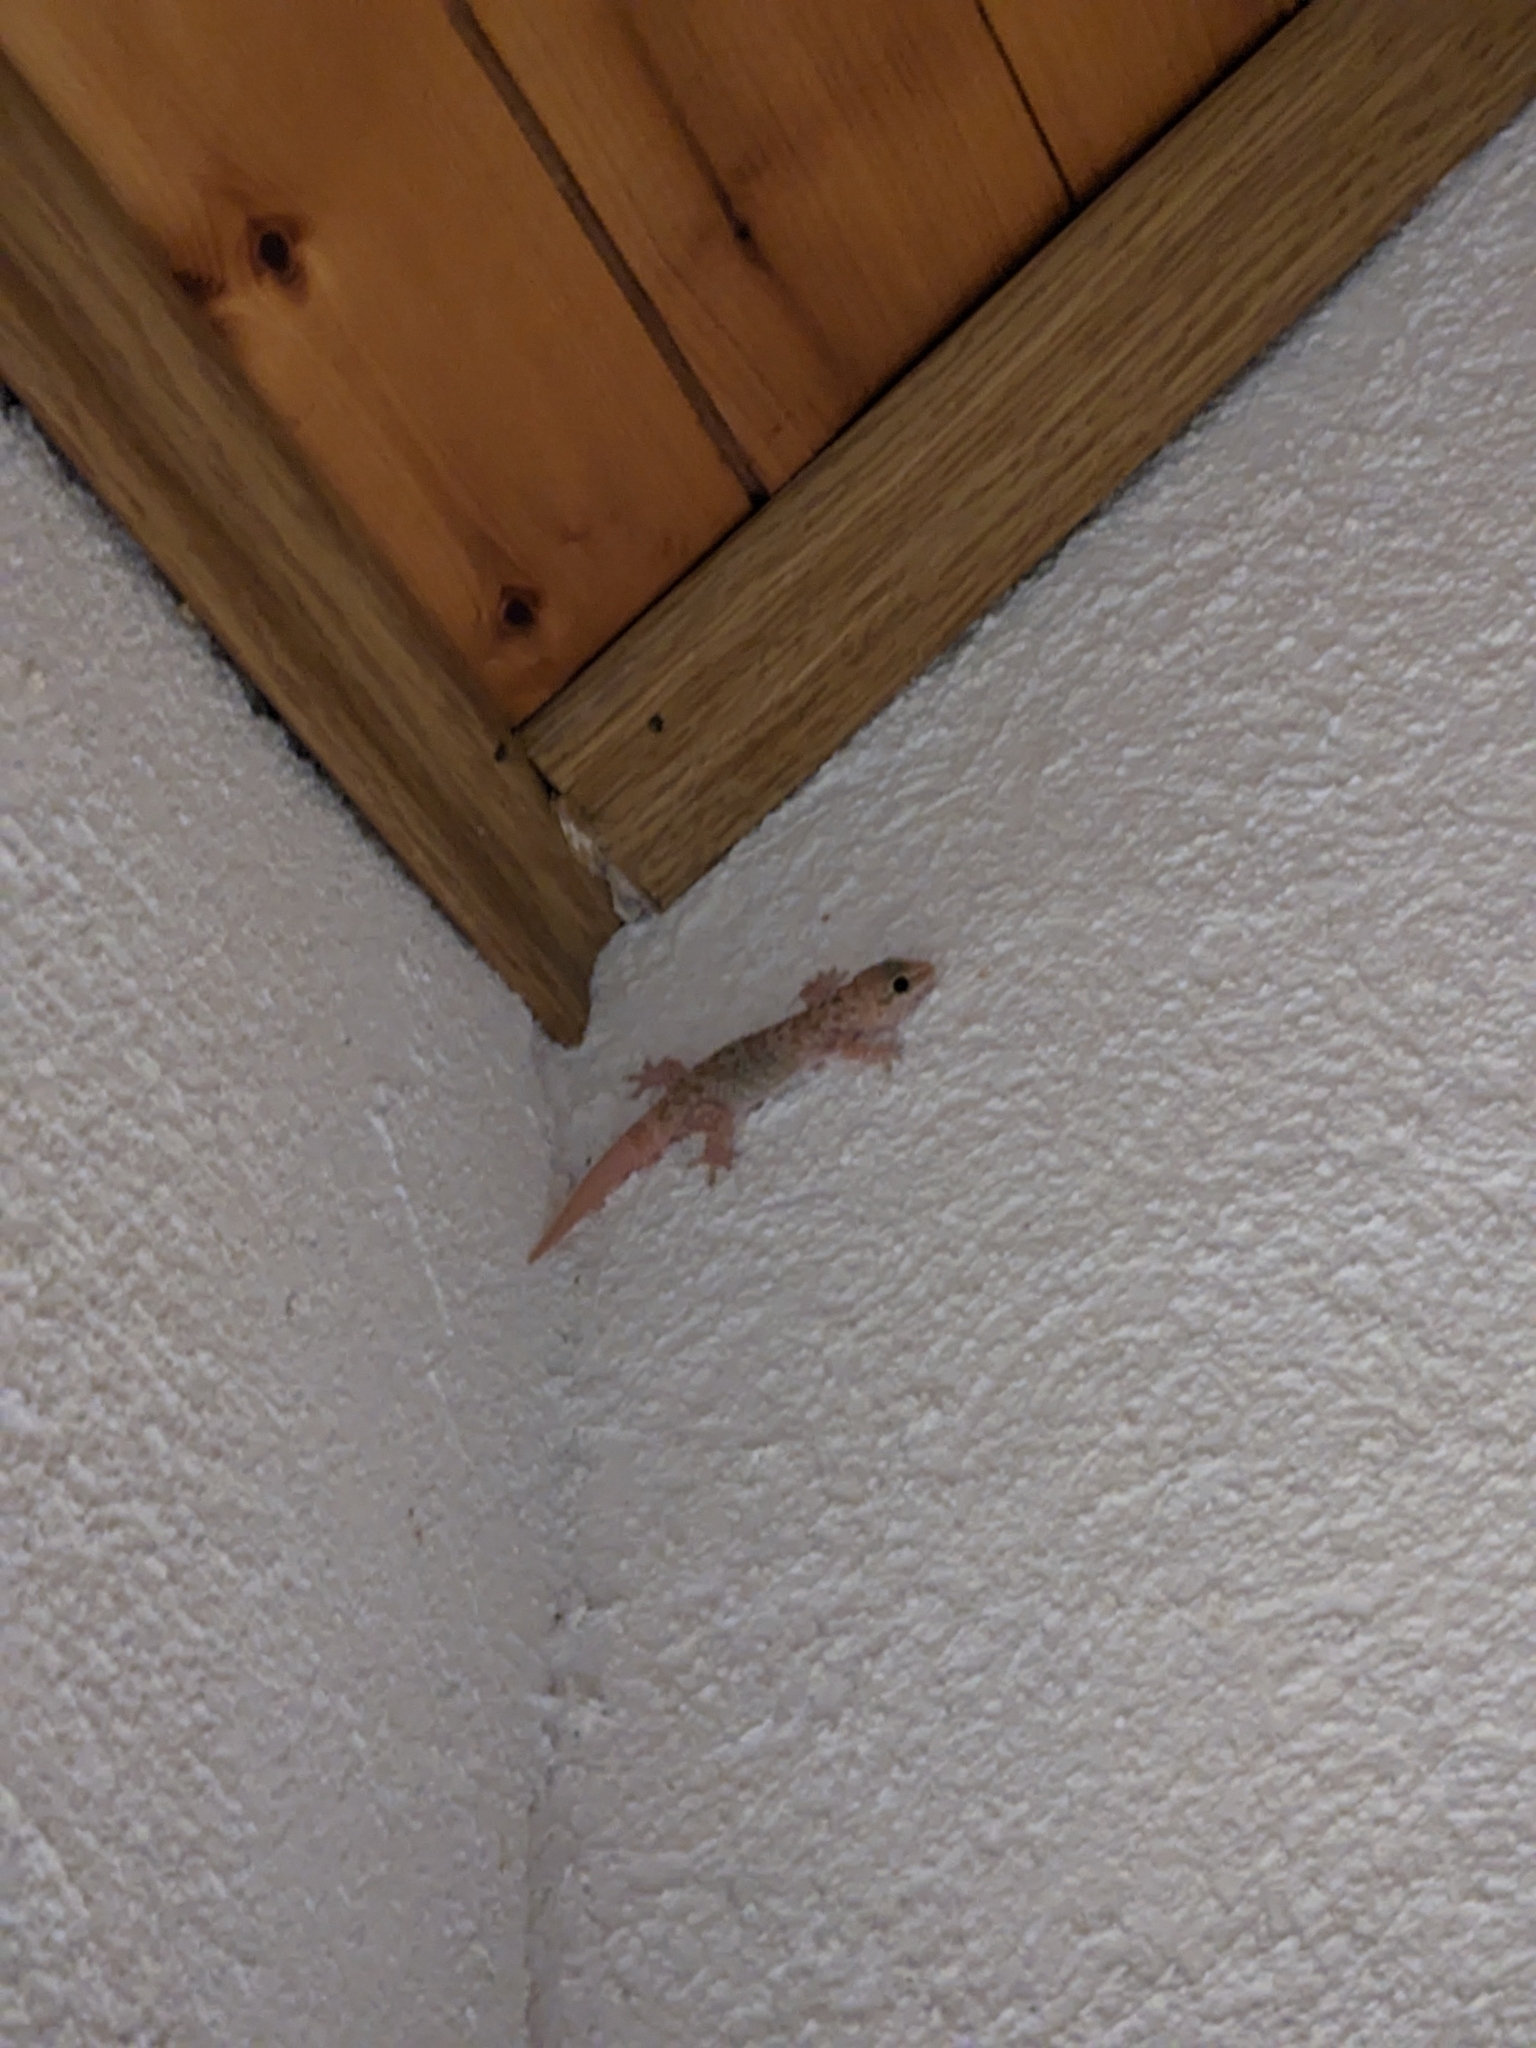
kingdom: Animalia
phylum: Chordata
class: Squamata
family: Gekkonidae
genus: Hemidactylus
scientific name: Hemidactylus turcicus
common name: Turkish gecko
